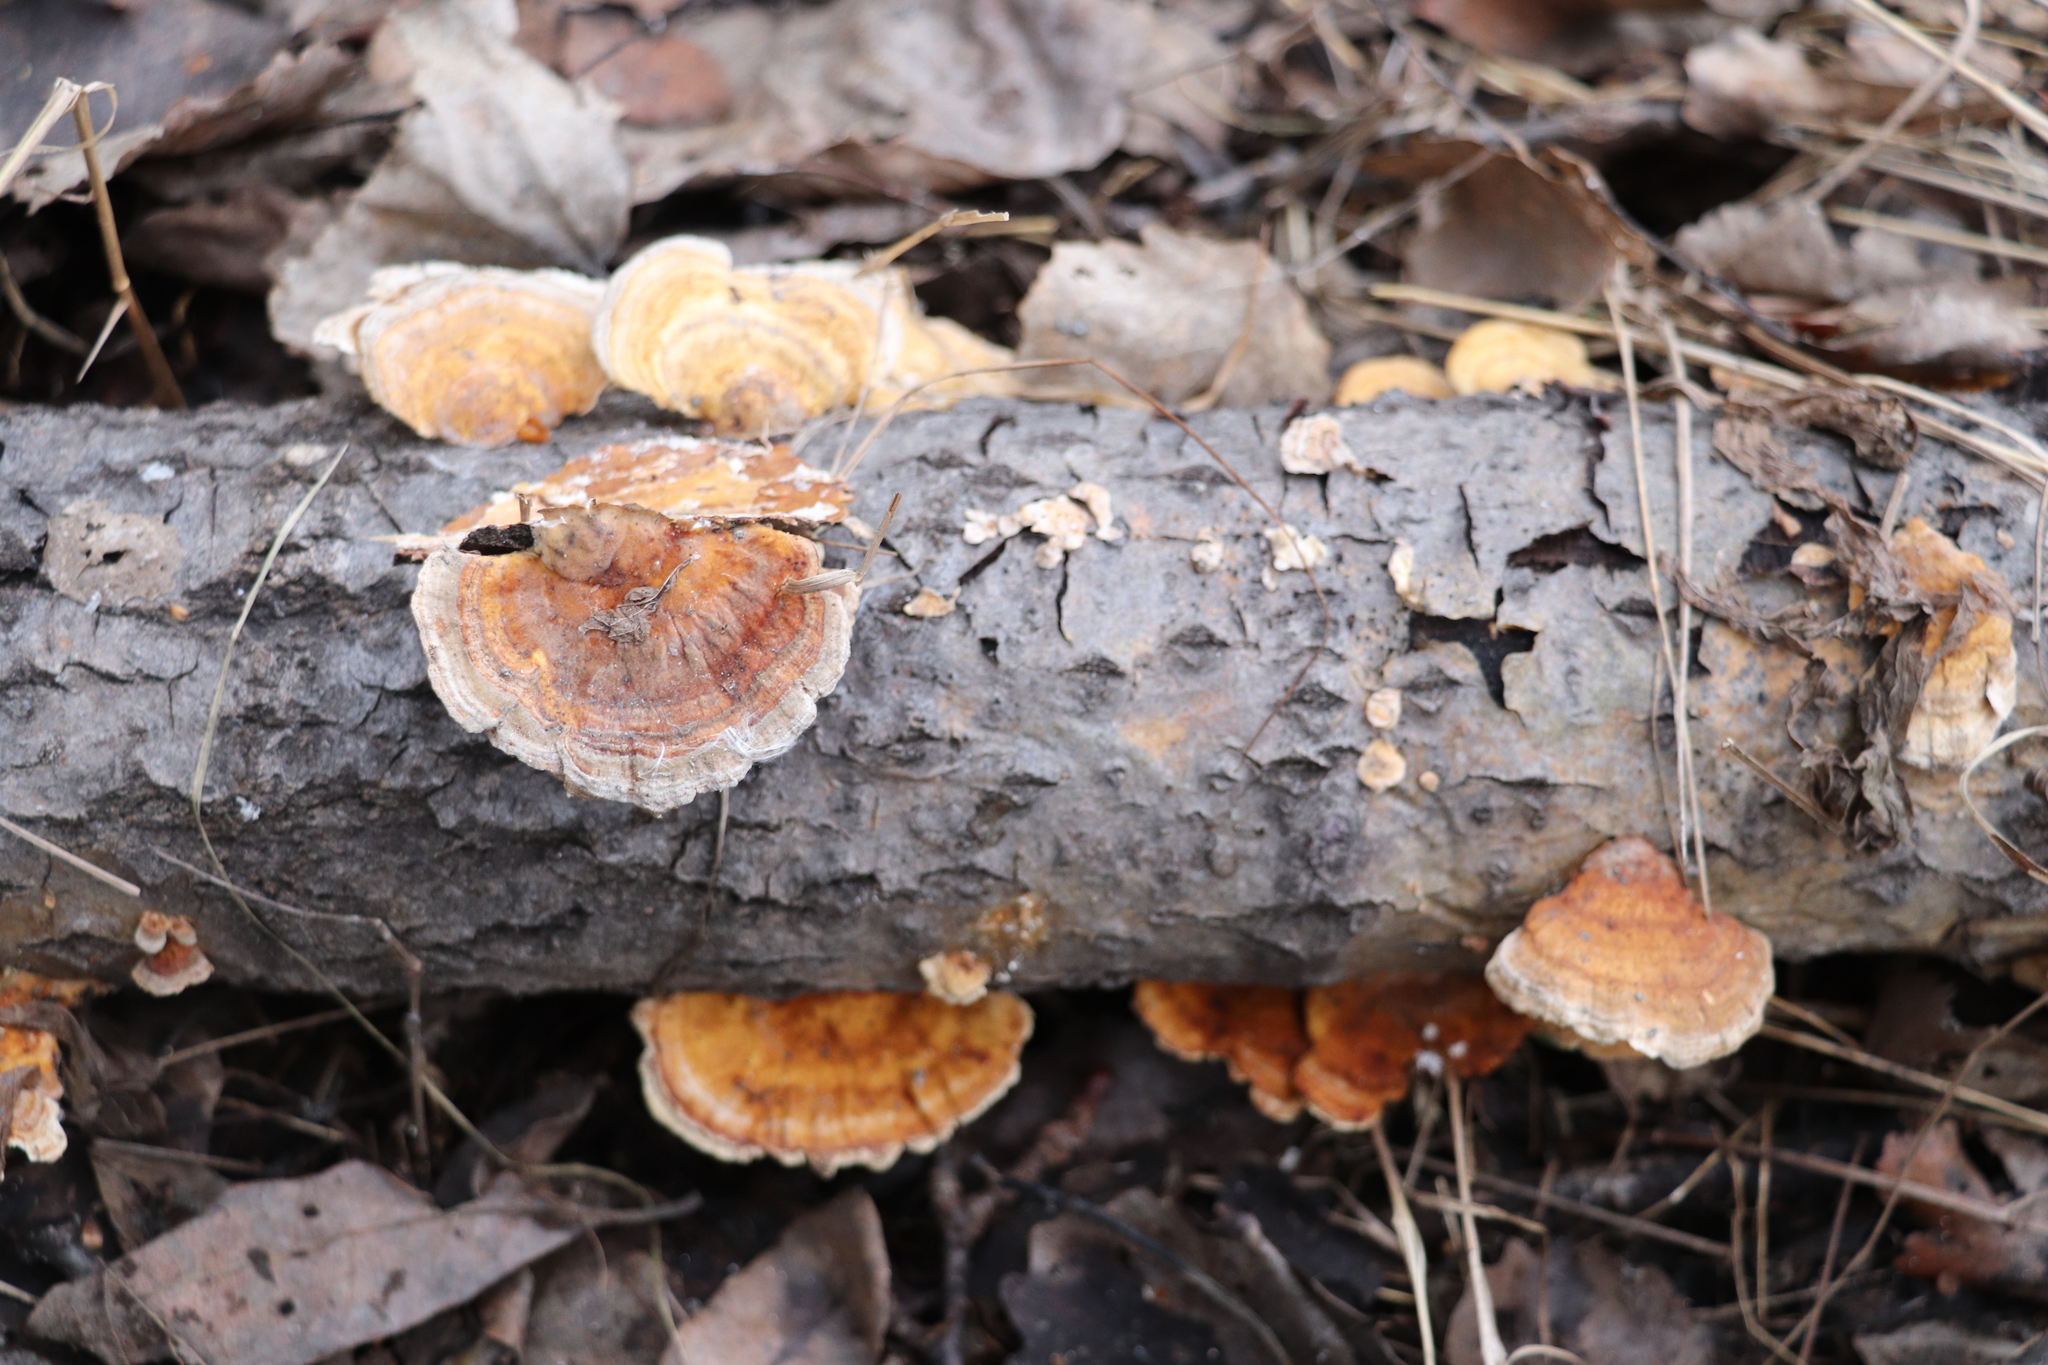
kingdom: Fungi
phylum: Basidiomycota
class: Agaricomycetes
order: Polyporales
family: Polyporaceae
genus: Trametes
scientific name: Trametes ochracea
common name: Ochre bracket
